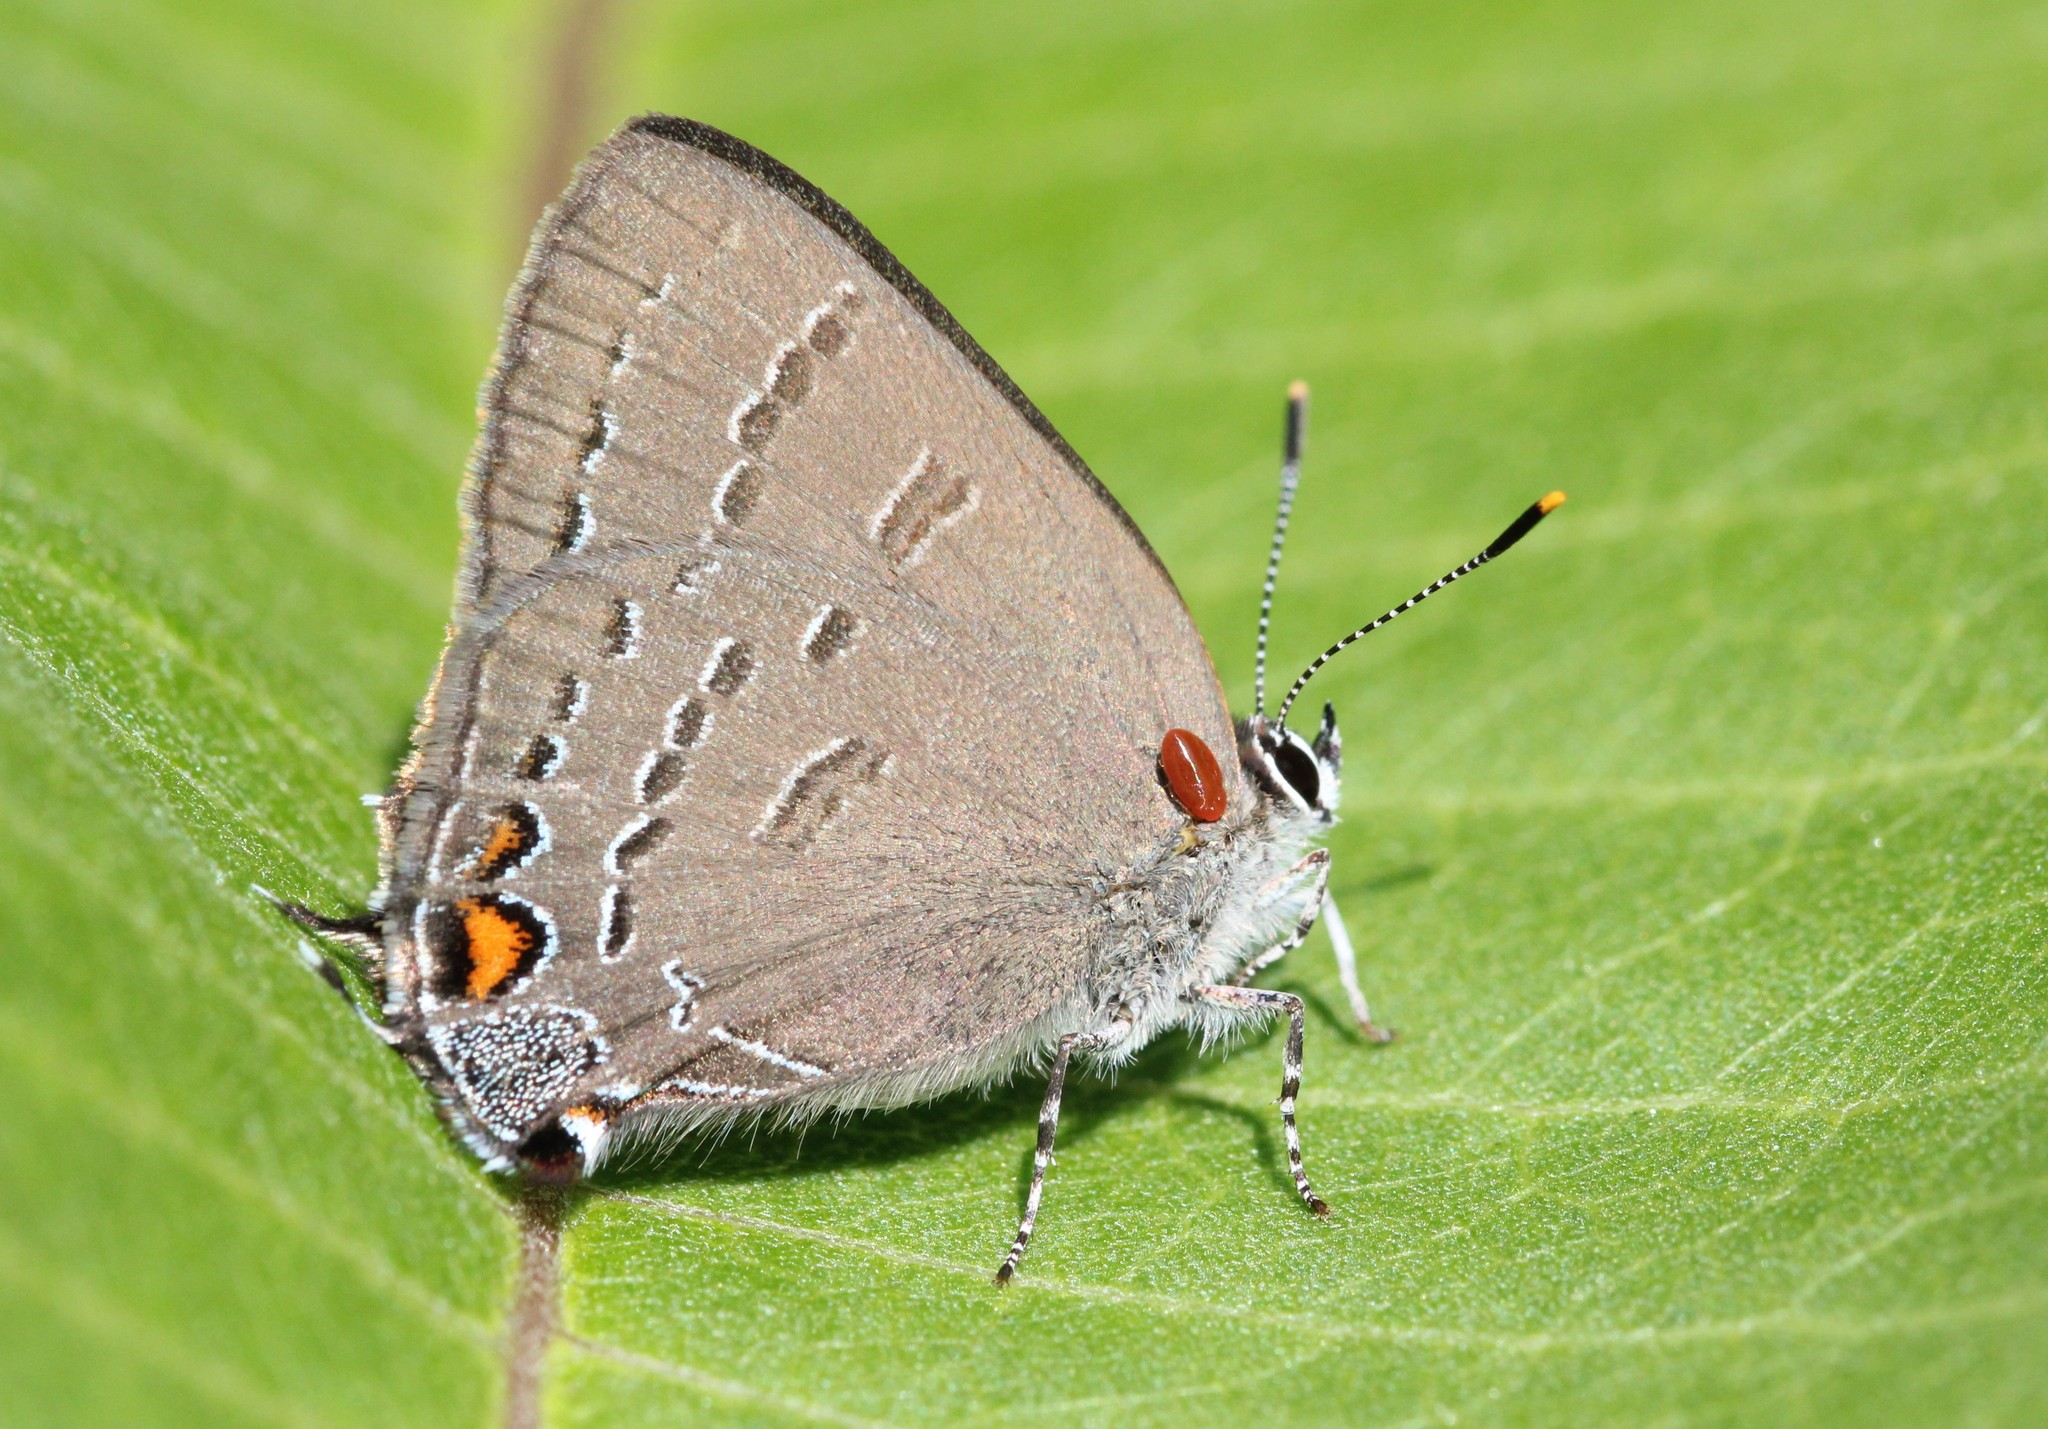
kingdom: Animalia
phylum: Arthropoda
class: Insecta
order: Lepidoptera
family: Lycaenidae
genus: Satyrium
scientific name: Satyrium calanus
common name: Banded hairstreak
